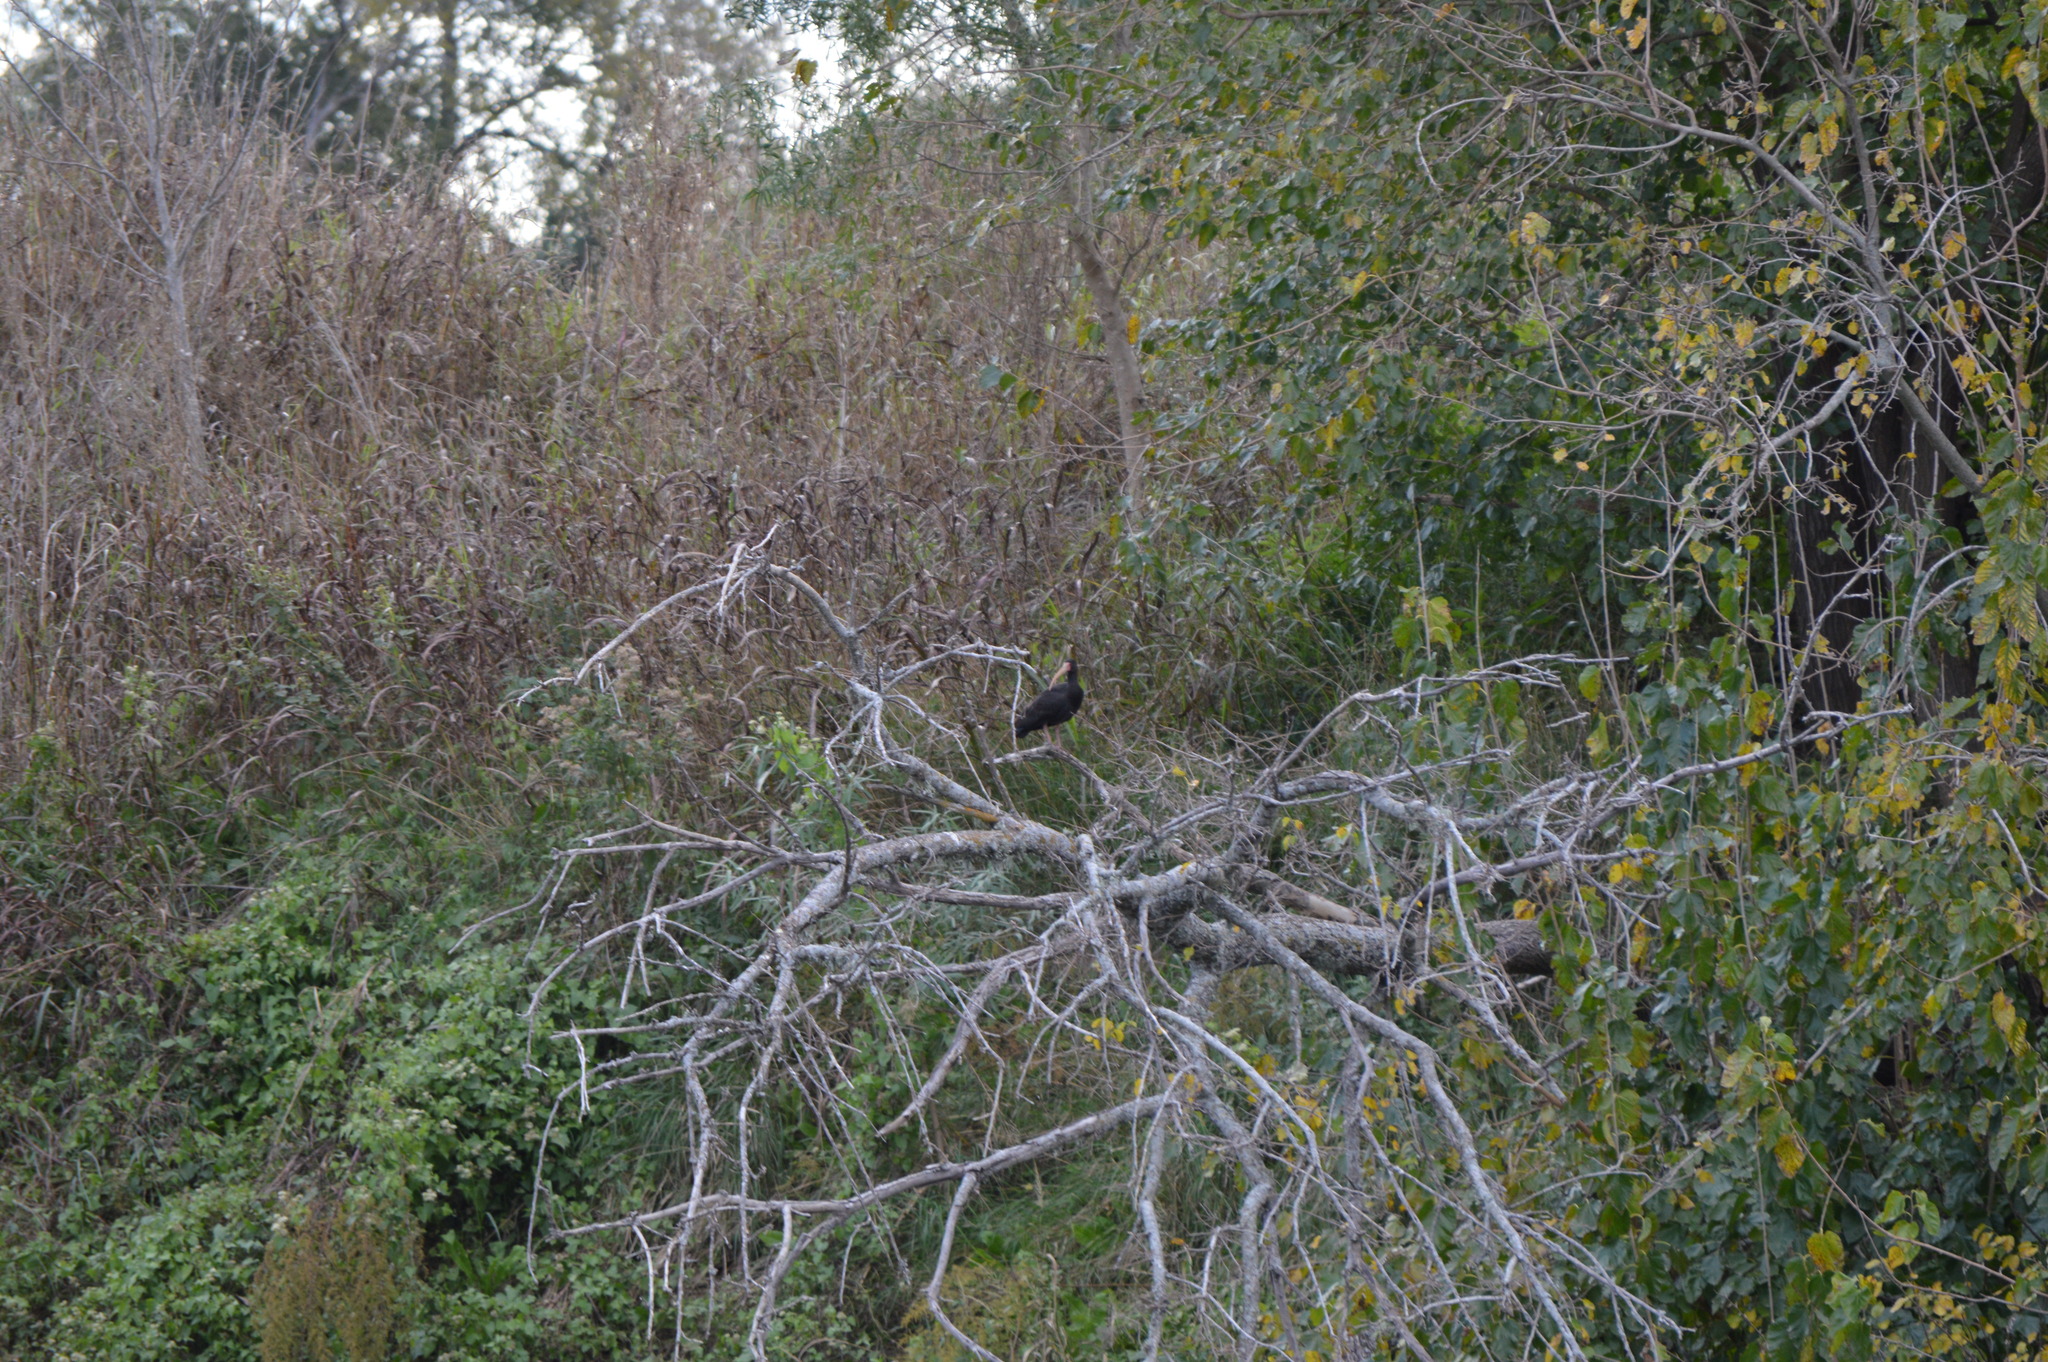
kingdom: Animalia
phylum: Chordata
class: Aves
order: Pelecaniformes
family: Threskiornithidae
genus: Phimosus
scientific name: Phimosus infuscatus
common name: Bare-faced ibis
